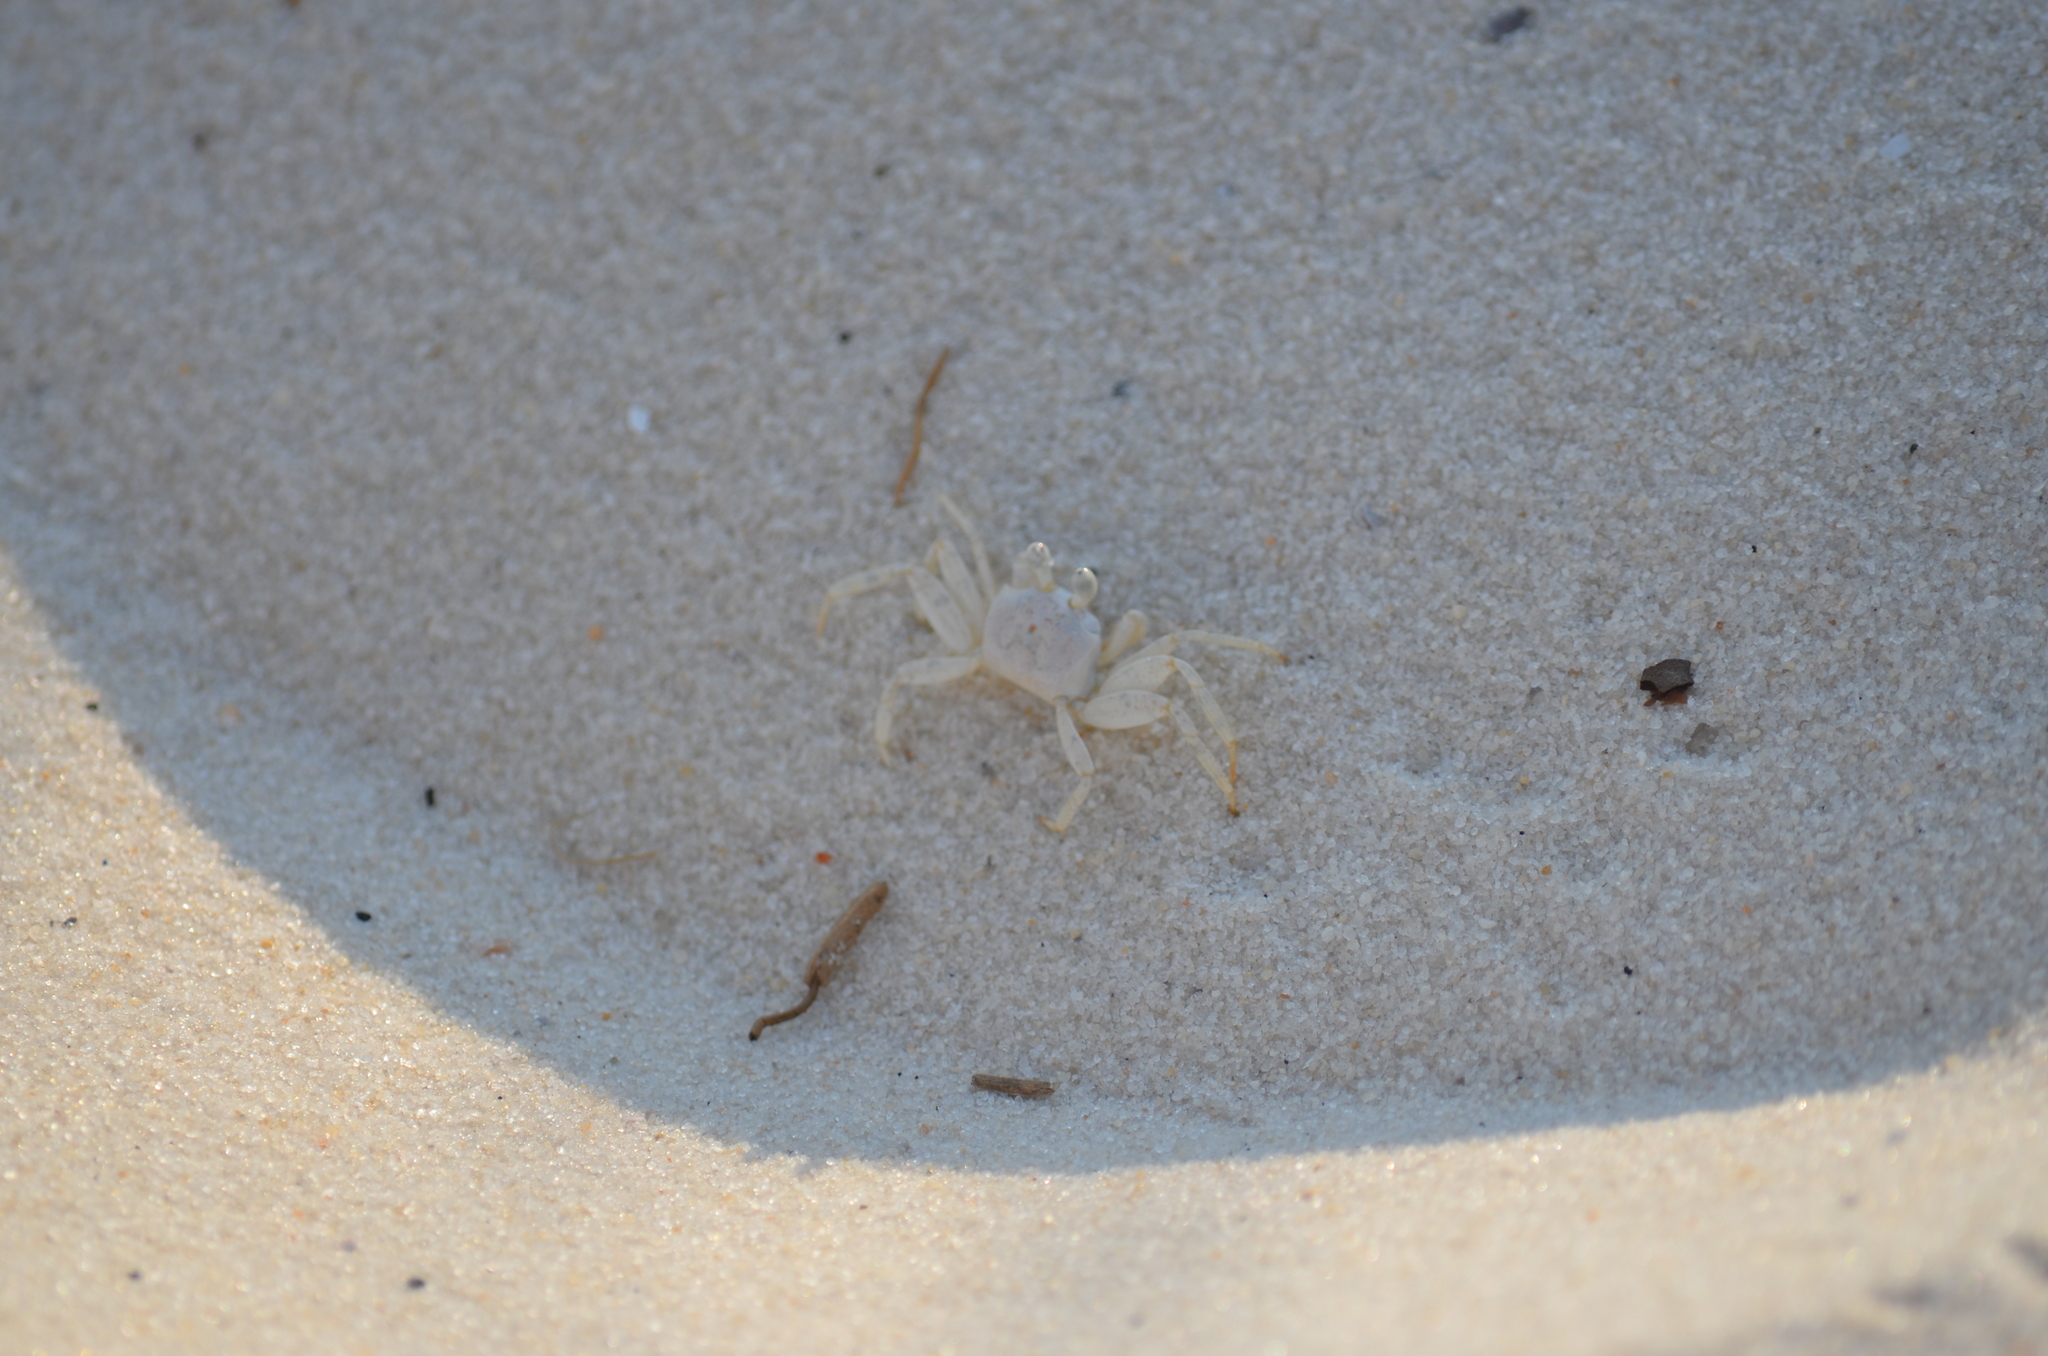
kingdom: Animalia
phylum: Arthropoda
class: Malacostraca
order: Decapoda
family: Ocypodidae
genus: Ocypode
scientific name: Ocypode quadrata
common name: Ghost crab
